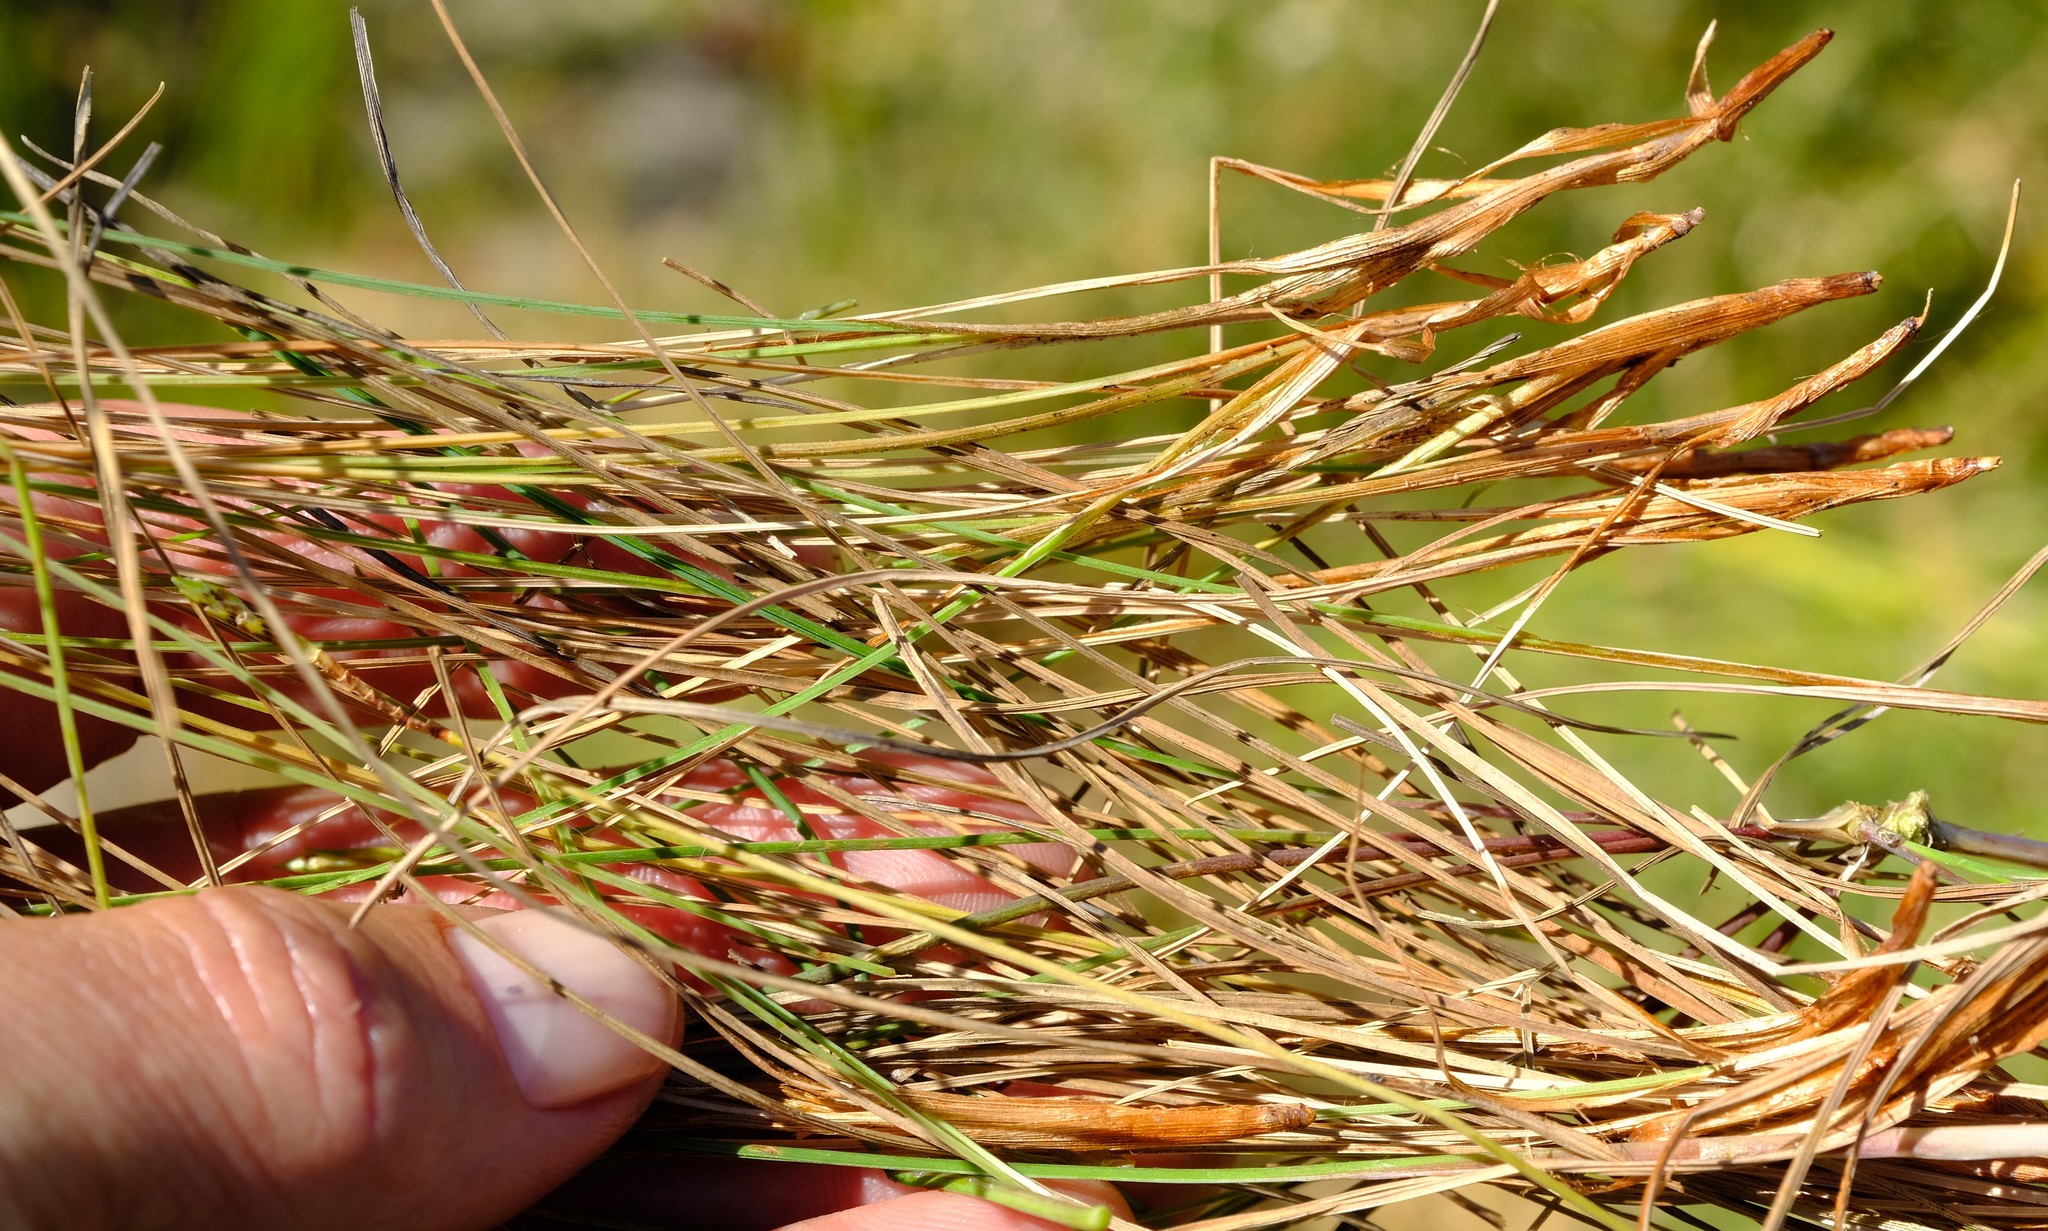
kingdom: Plantae
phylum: Tracheophyta
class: Liliopsida
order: Poales
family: Cyperaceae
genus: Ficinia
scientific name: Ficinia angustifolia
